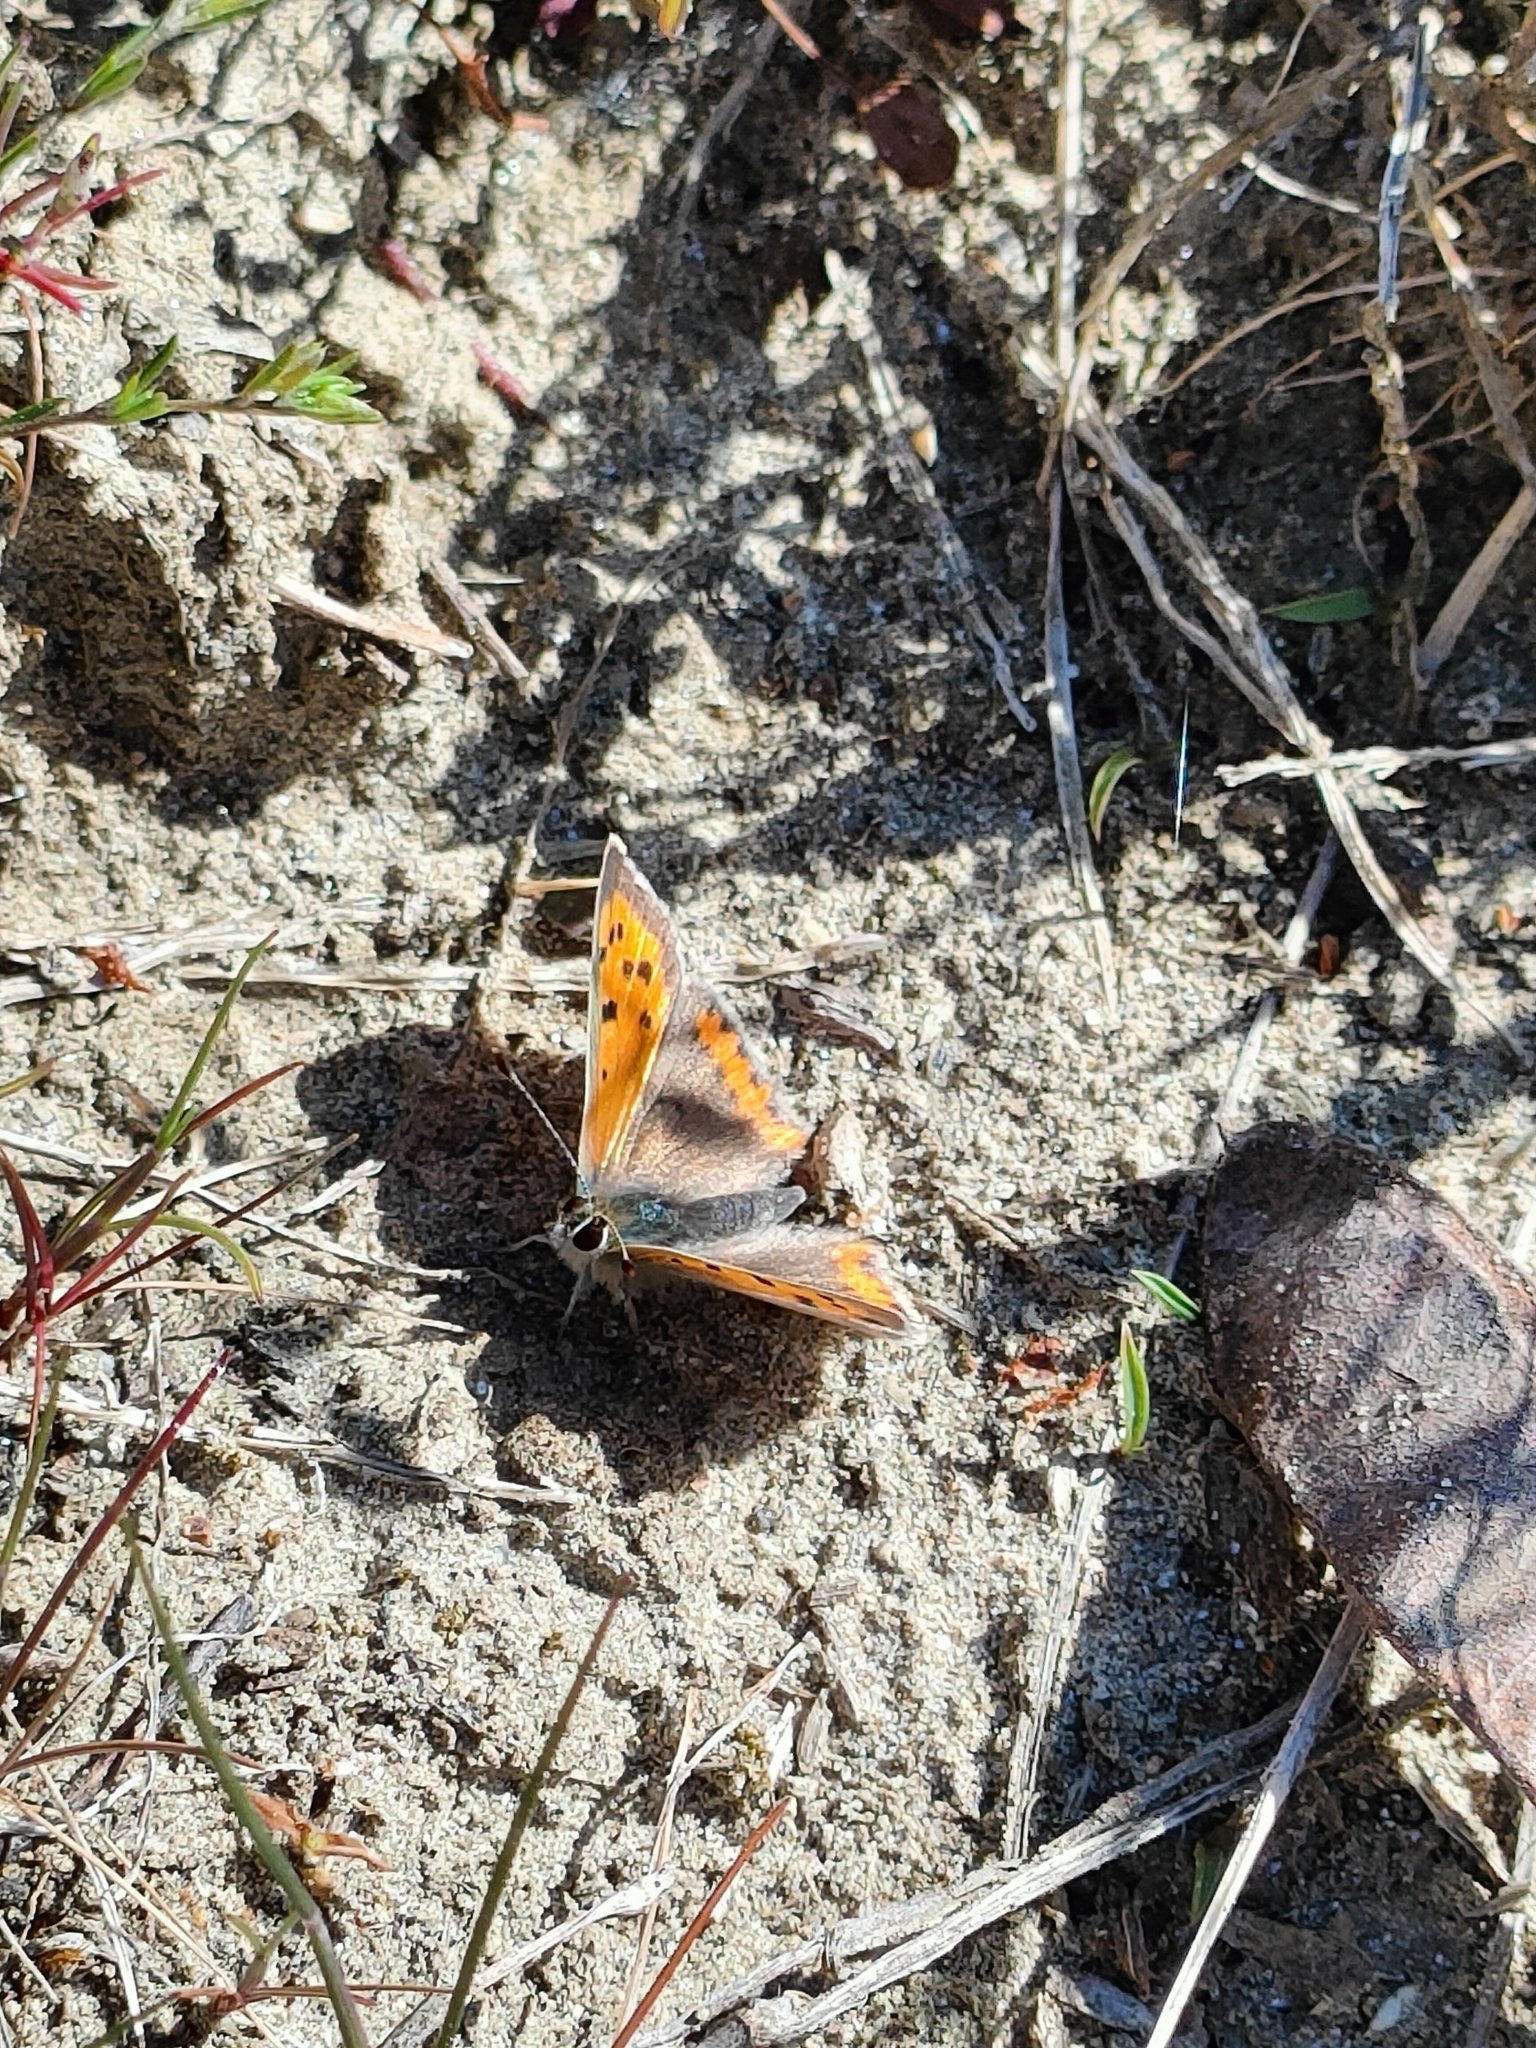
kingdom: Animalia
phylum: Arthropoda
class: Insecta
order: Lepidoptera
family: Lycaenidae
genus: Lycaena
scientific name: Lycaena phlaeas
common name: Small copper
